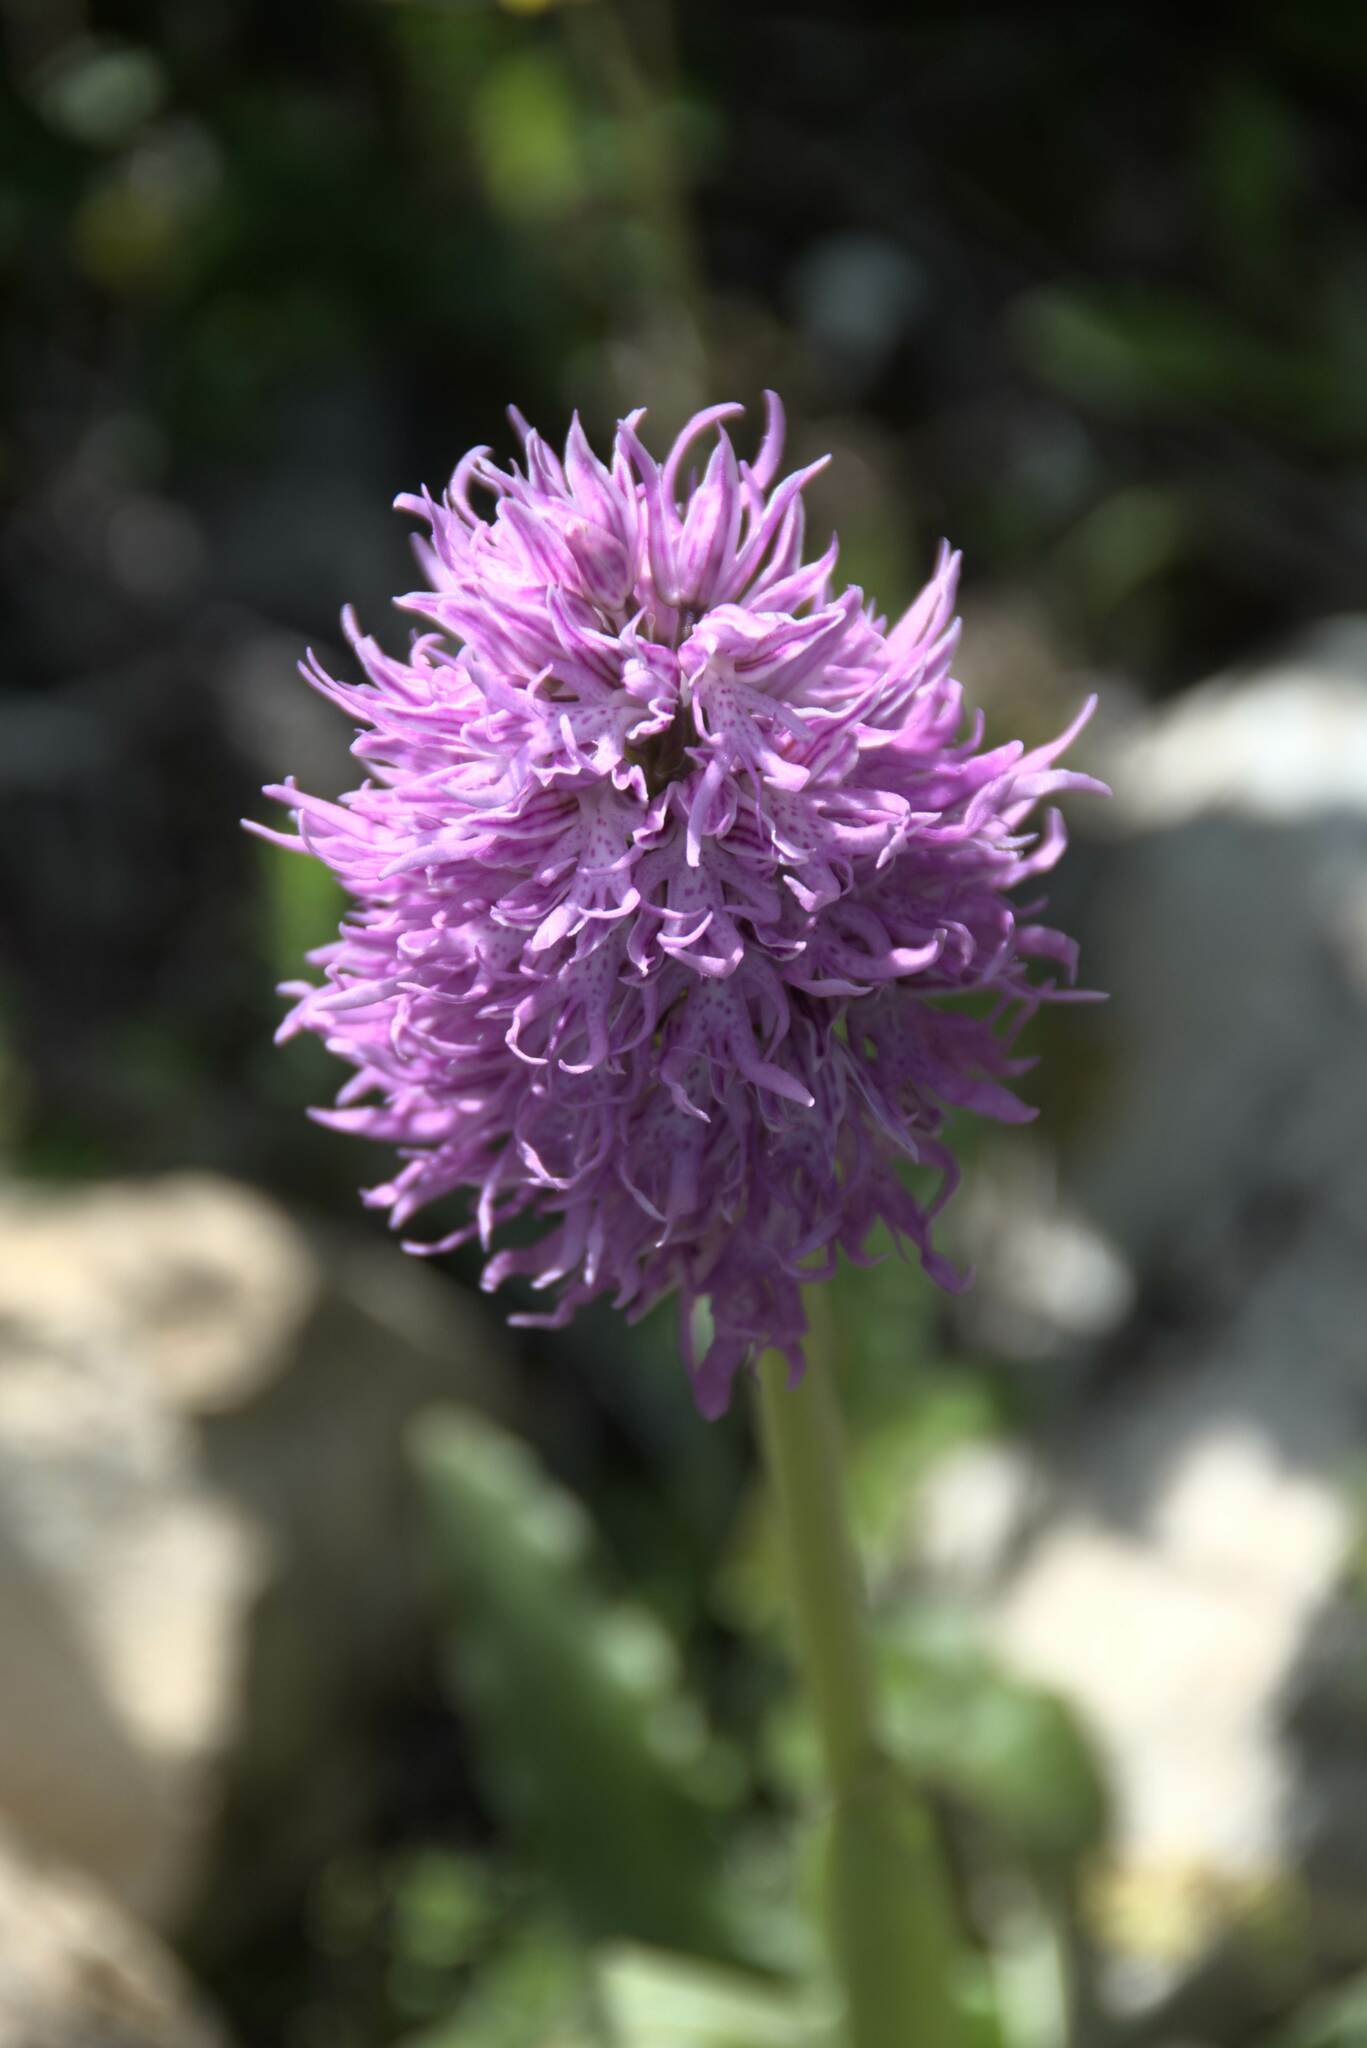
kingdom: Plantae
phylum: Tracheophyta
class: Liliopsida
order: Asparagales
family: Orchidaceae
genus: Orchis
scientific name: Orchis italica
